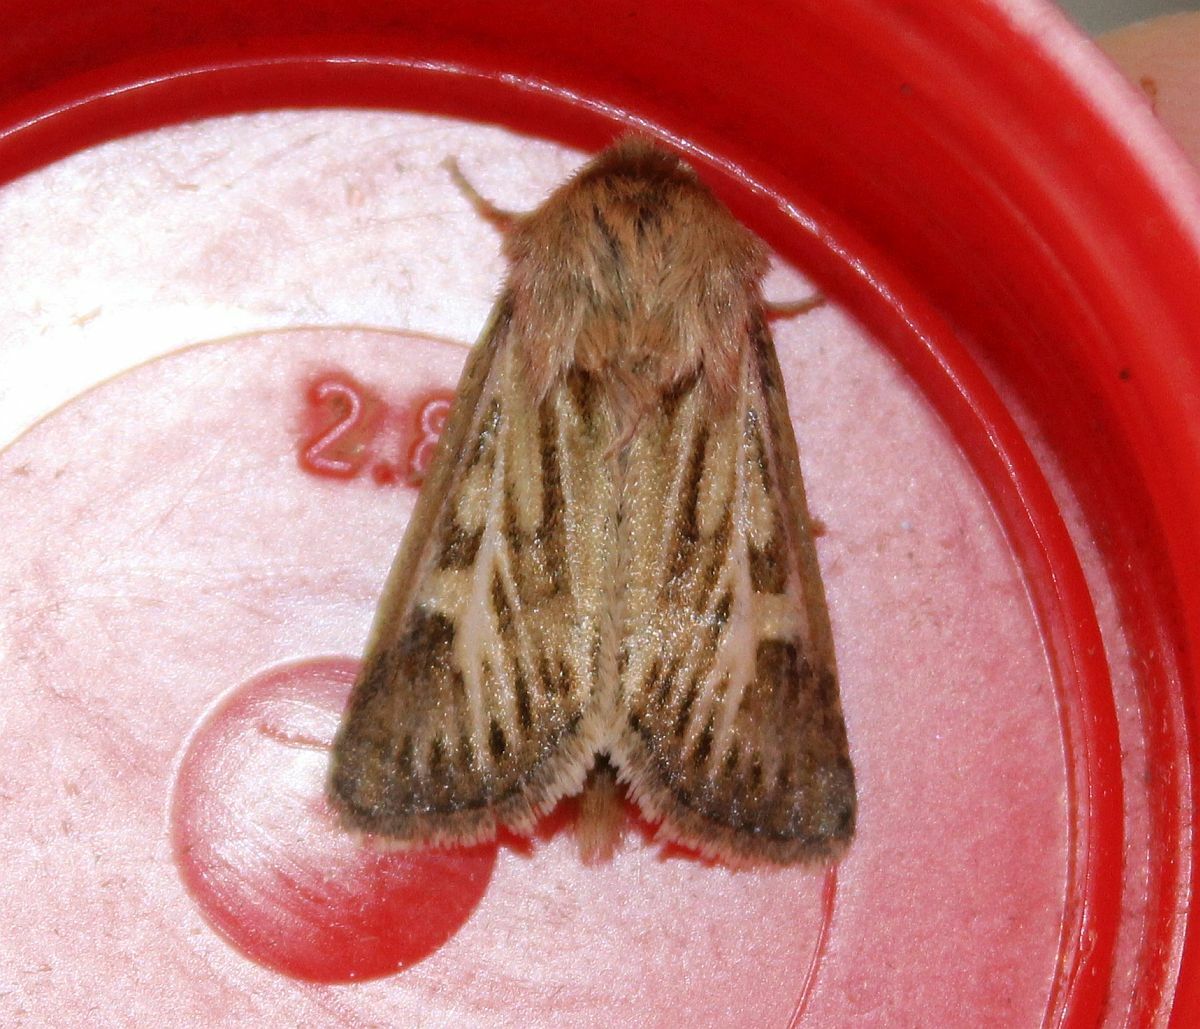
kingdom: Animalia
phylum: Arthropoda
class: Insecta
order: Lepidoptera
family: Noctuidae
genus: Cerapteryx
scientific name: Cerapteryx graminis
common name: Antler moth
